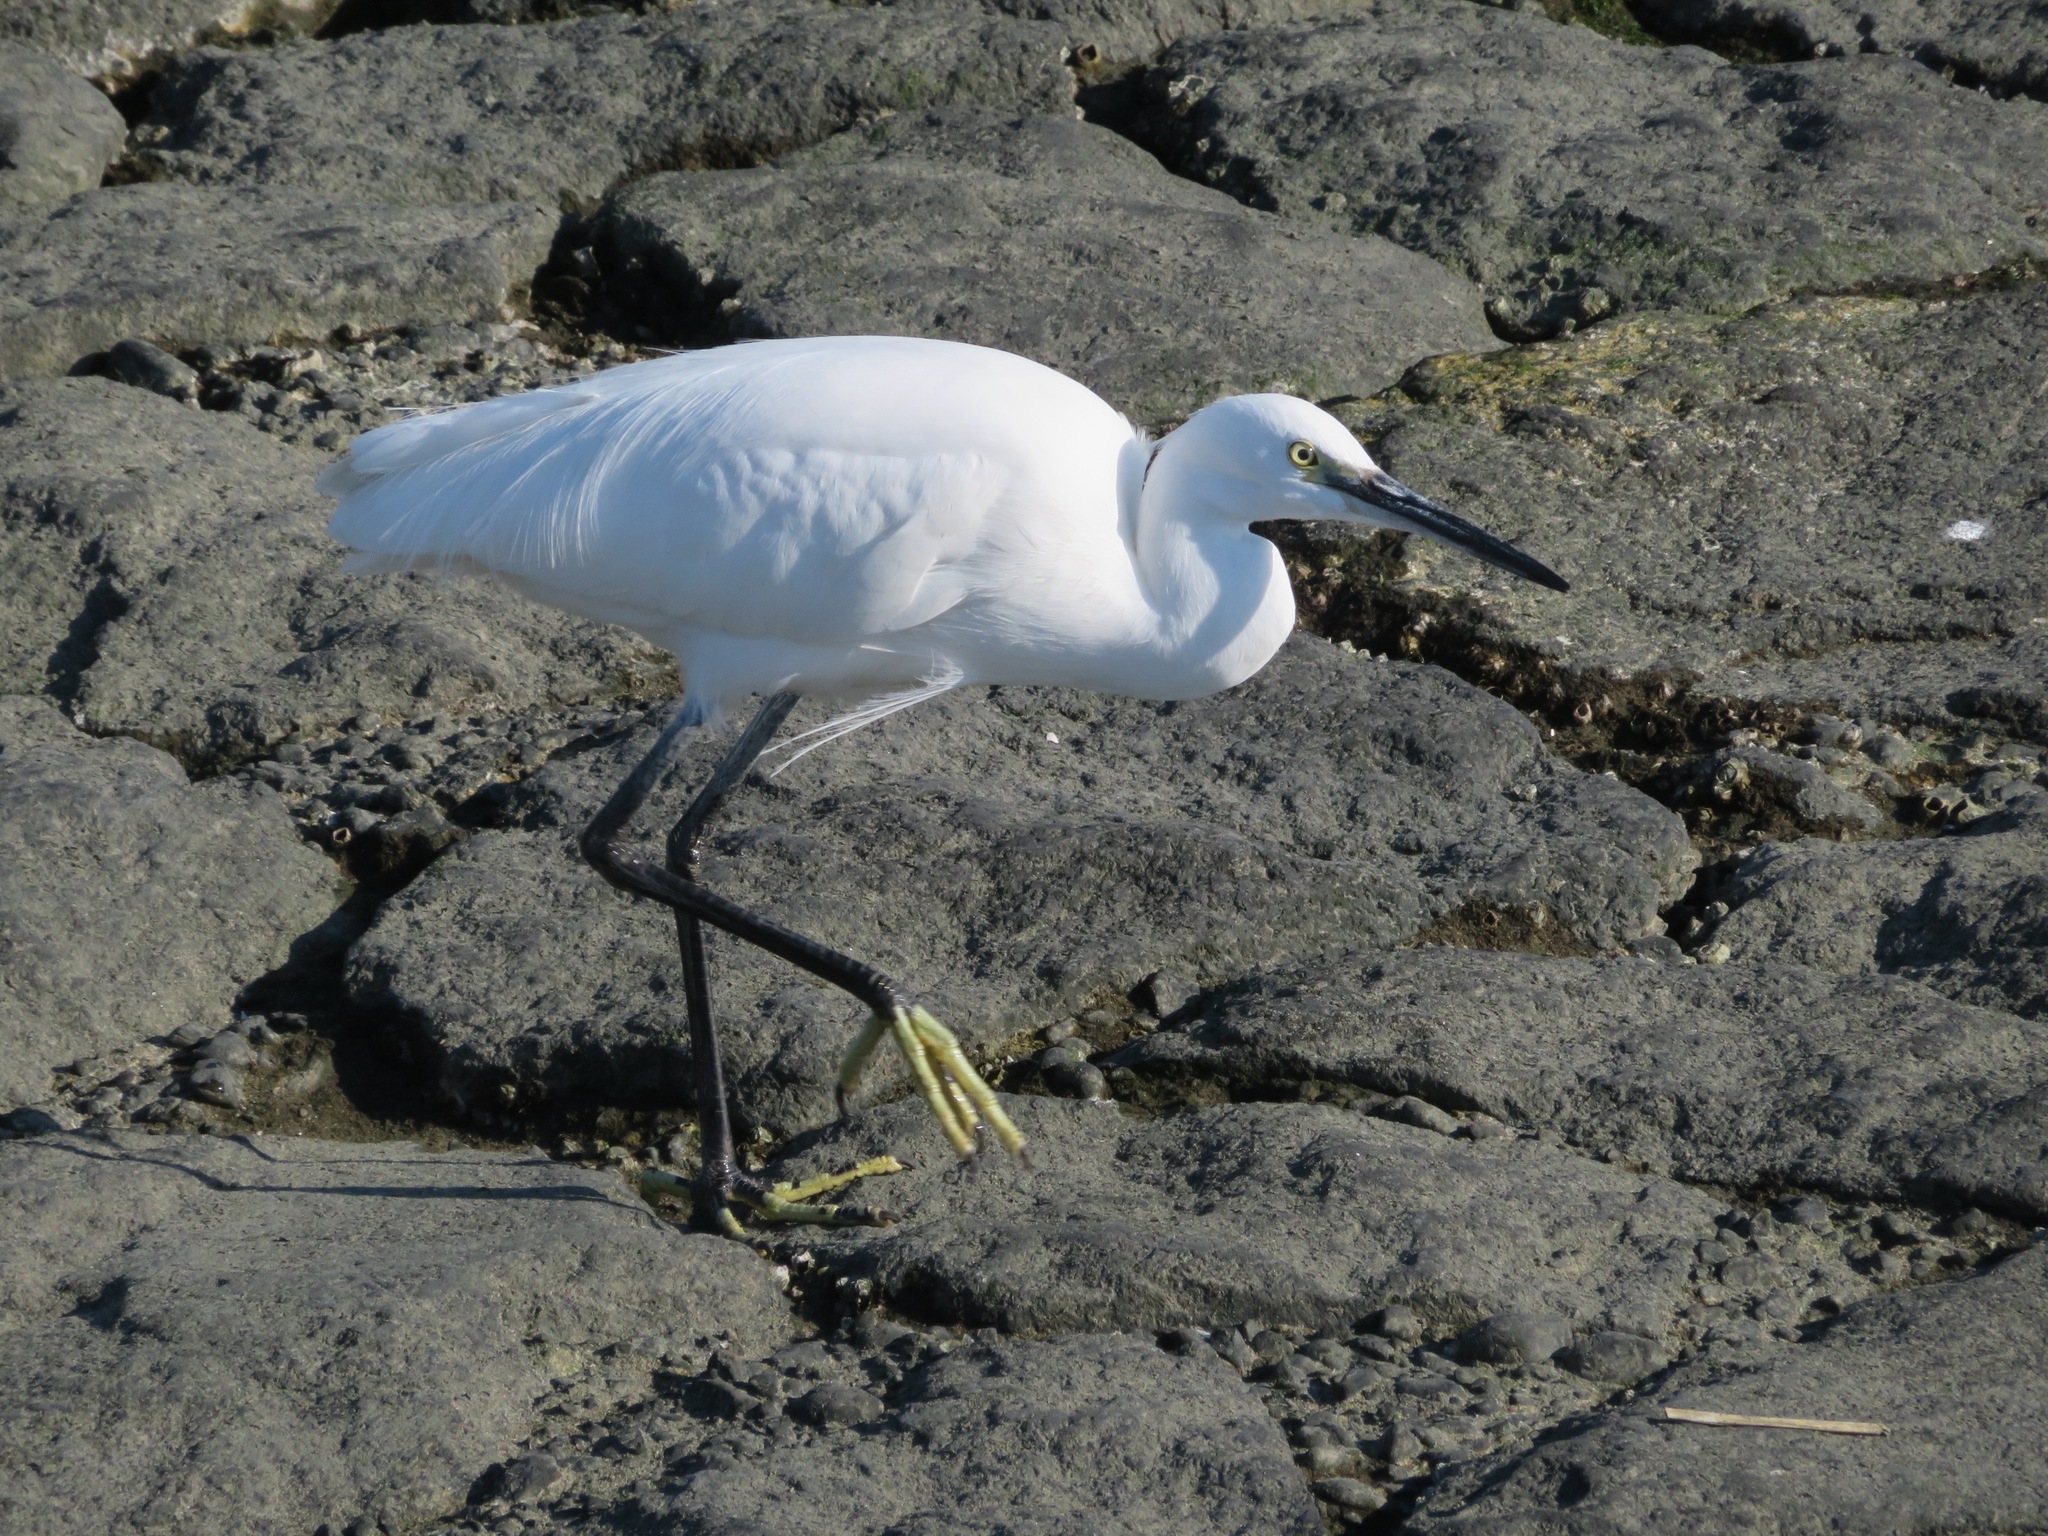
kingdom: Animalia
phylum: Chordata
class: Aves
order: Pelecaniformes
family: Ardeidae
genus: Egretta
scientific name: Egretta garzetta
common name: Little egret
